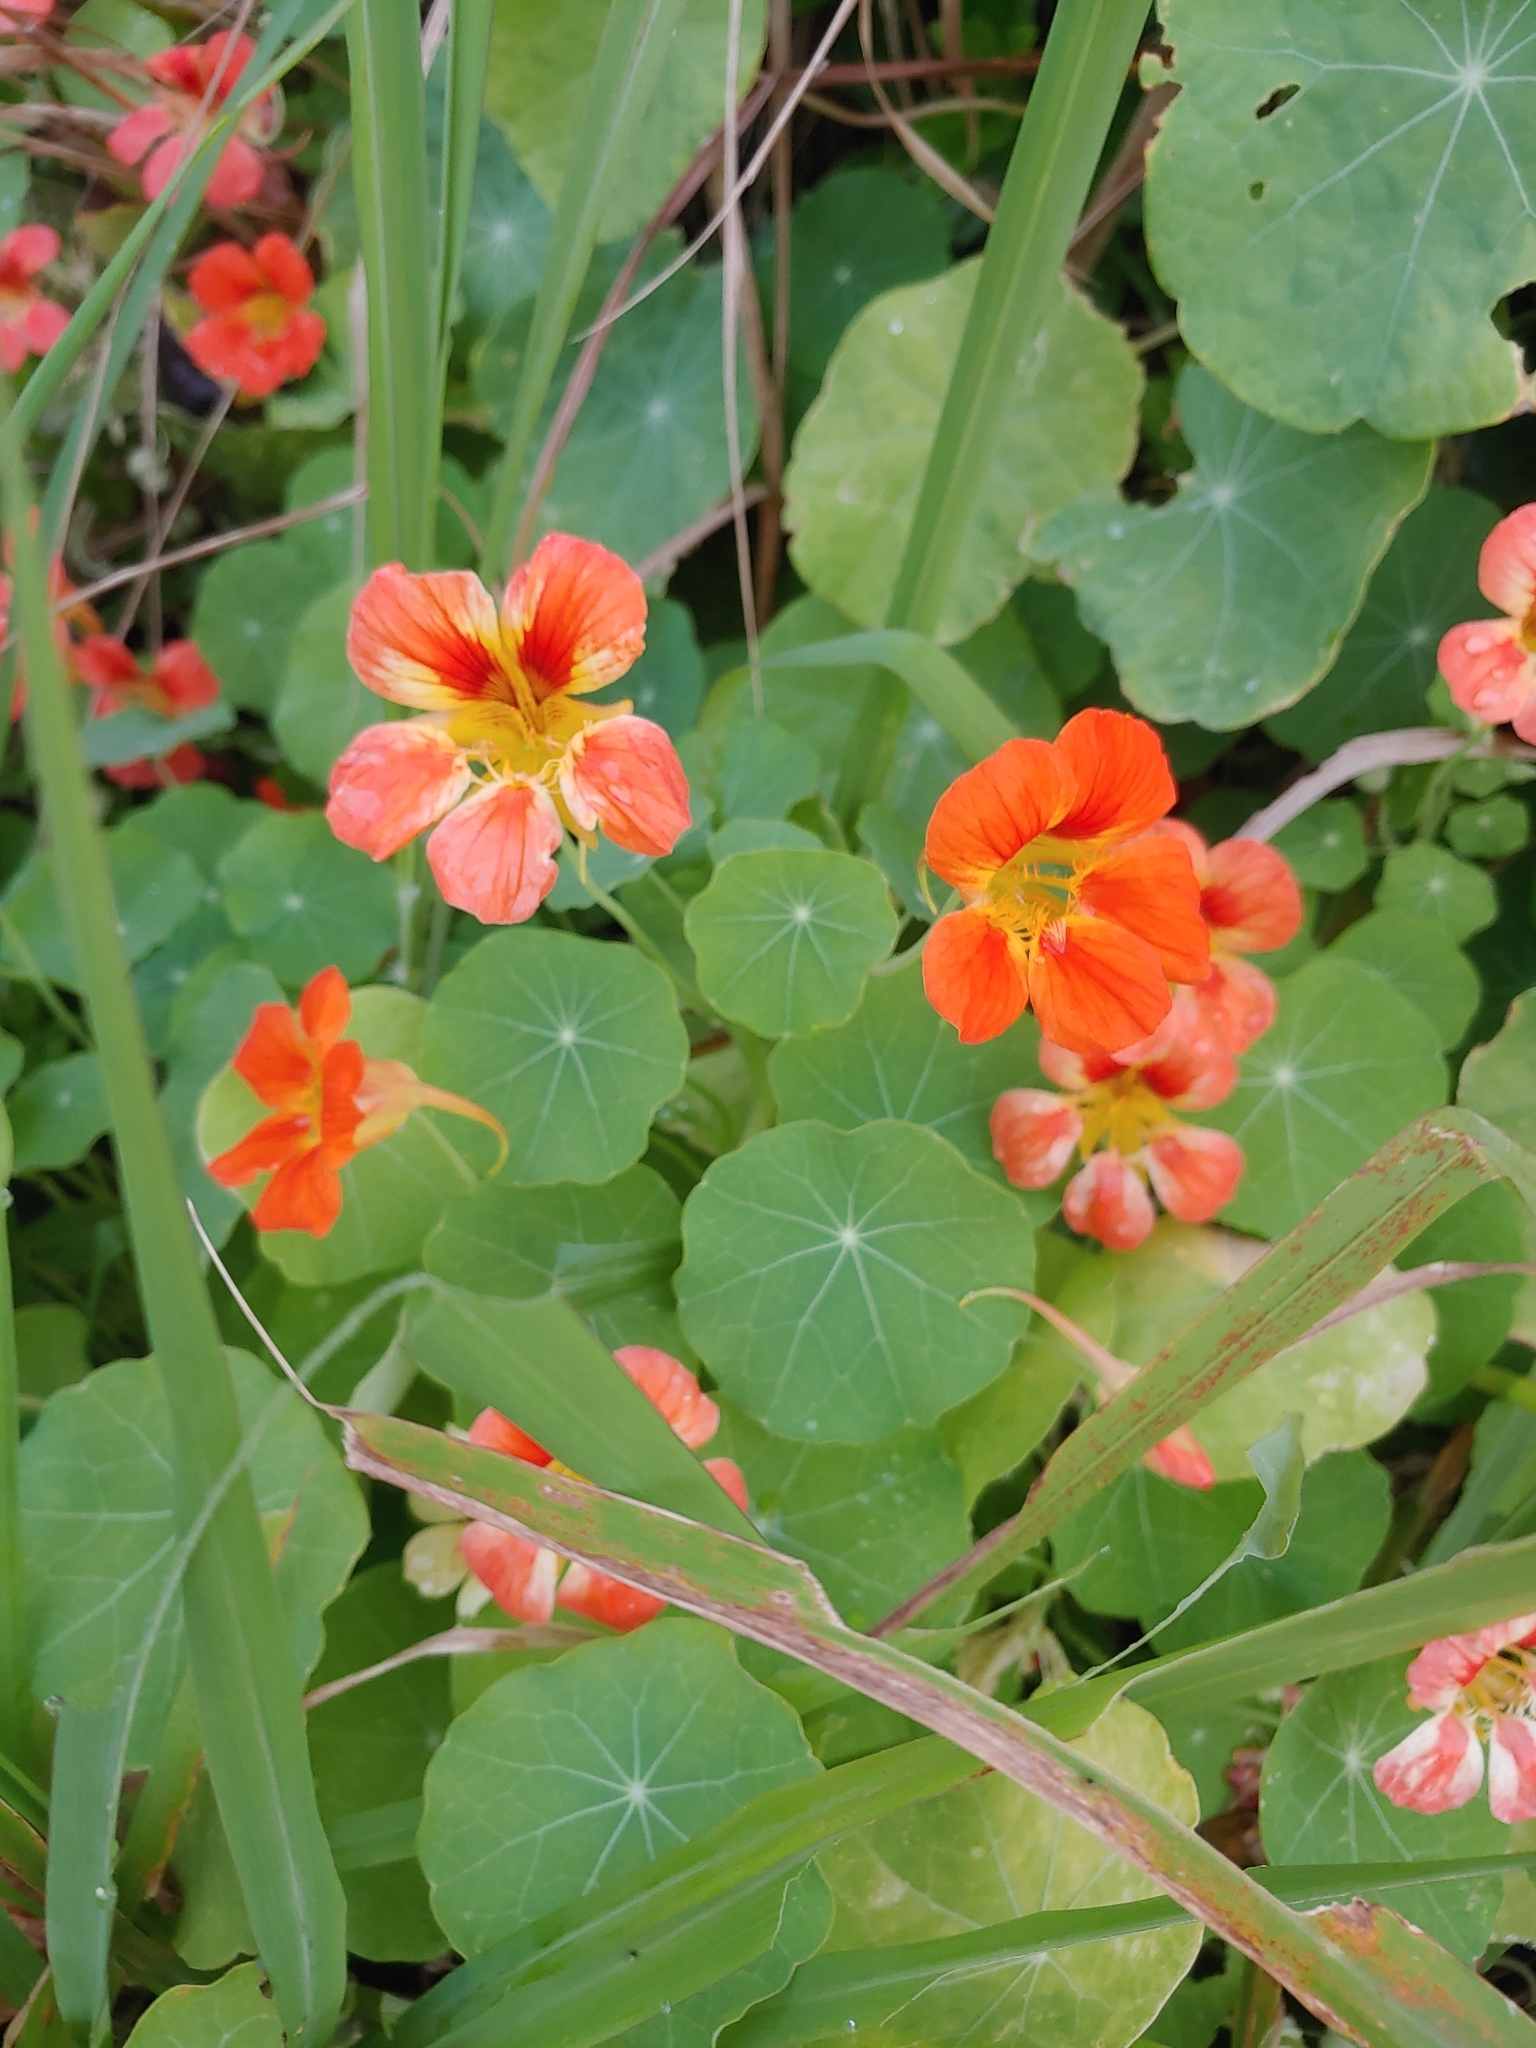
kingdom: Plantae
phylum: Tracheophyta
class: Magnoliopsida
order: Brassicales
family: Tropaeolaceae
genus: Tropaeolum
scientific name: Tropaeolum majus
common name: Nasturtium
